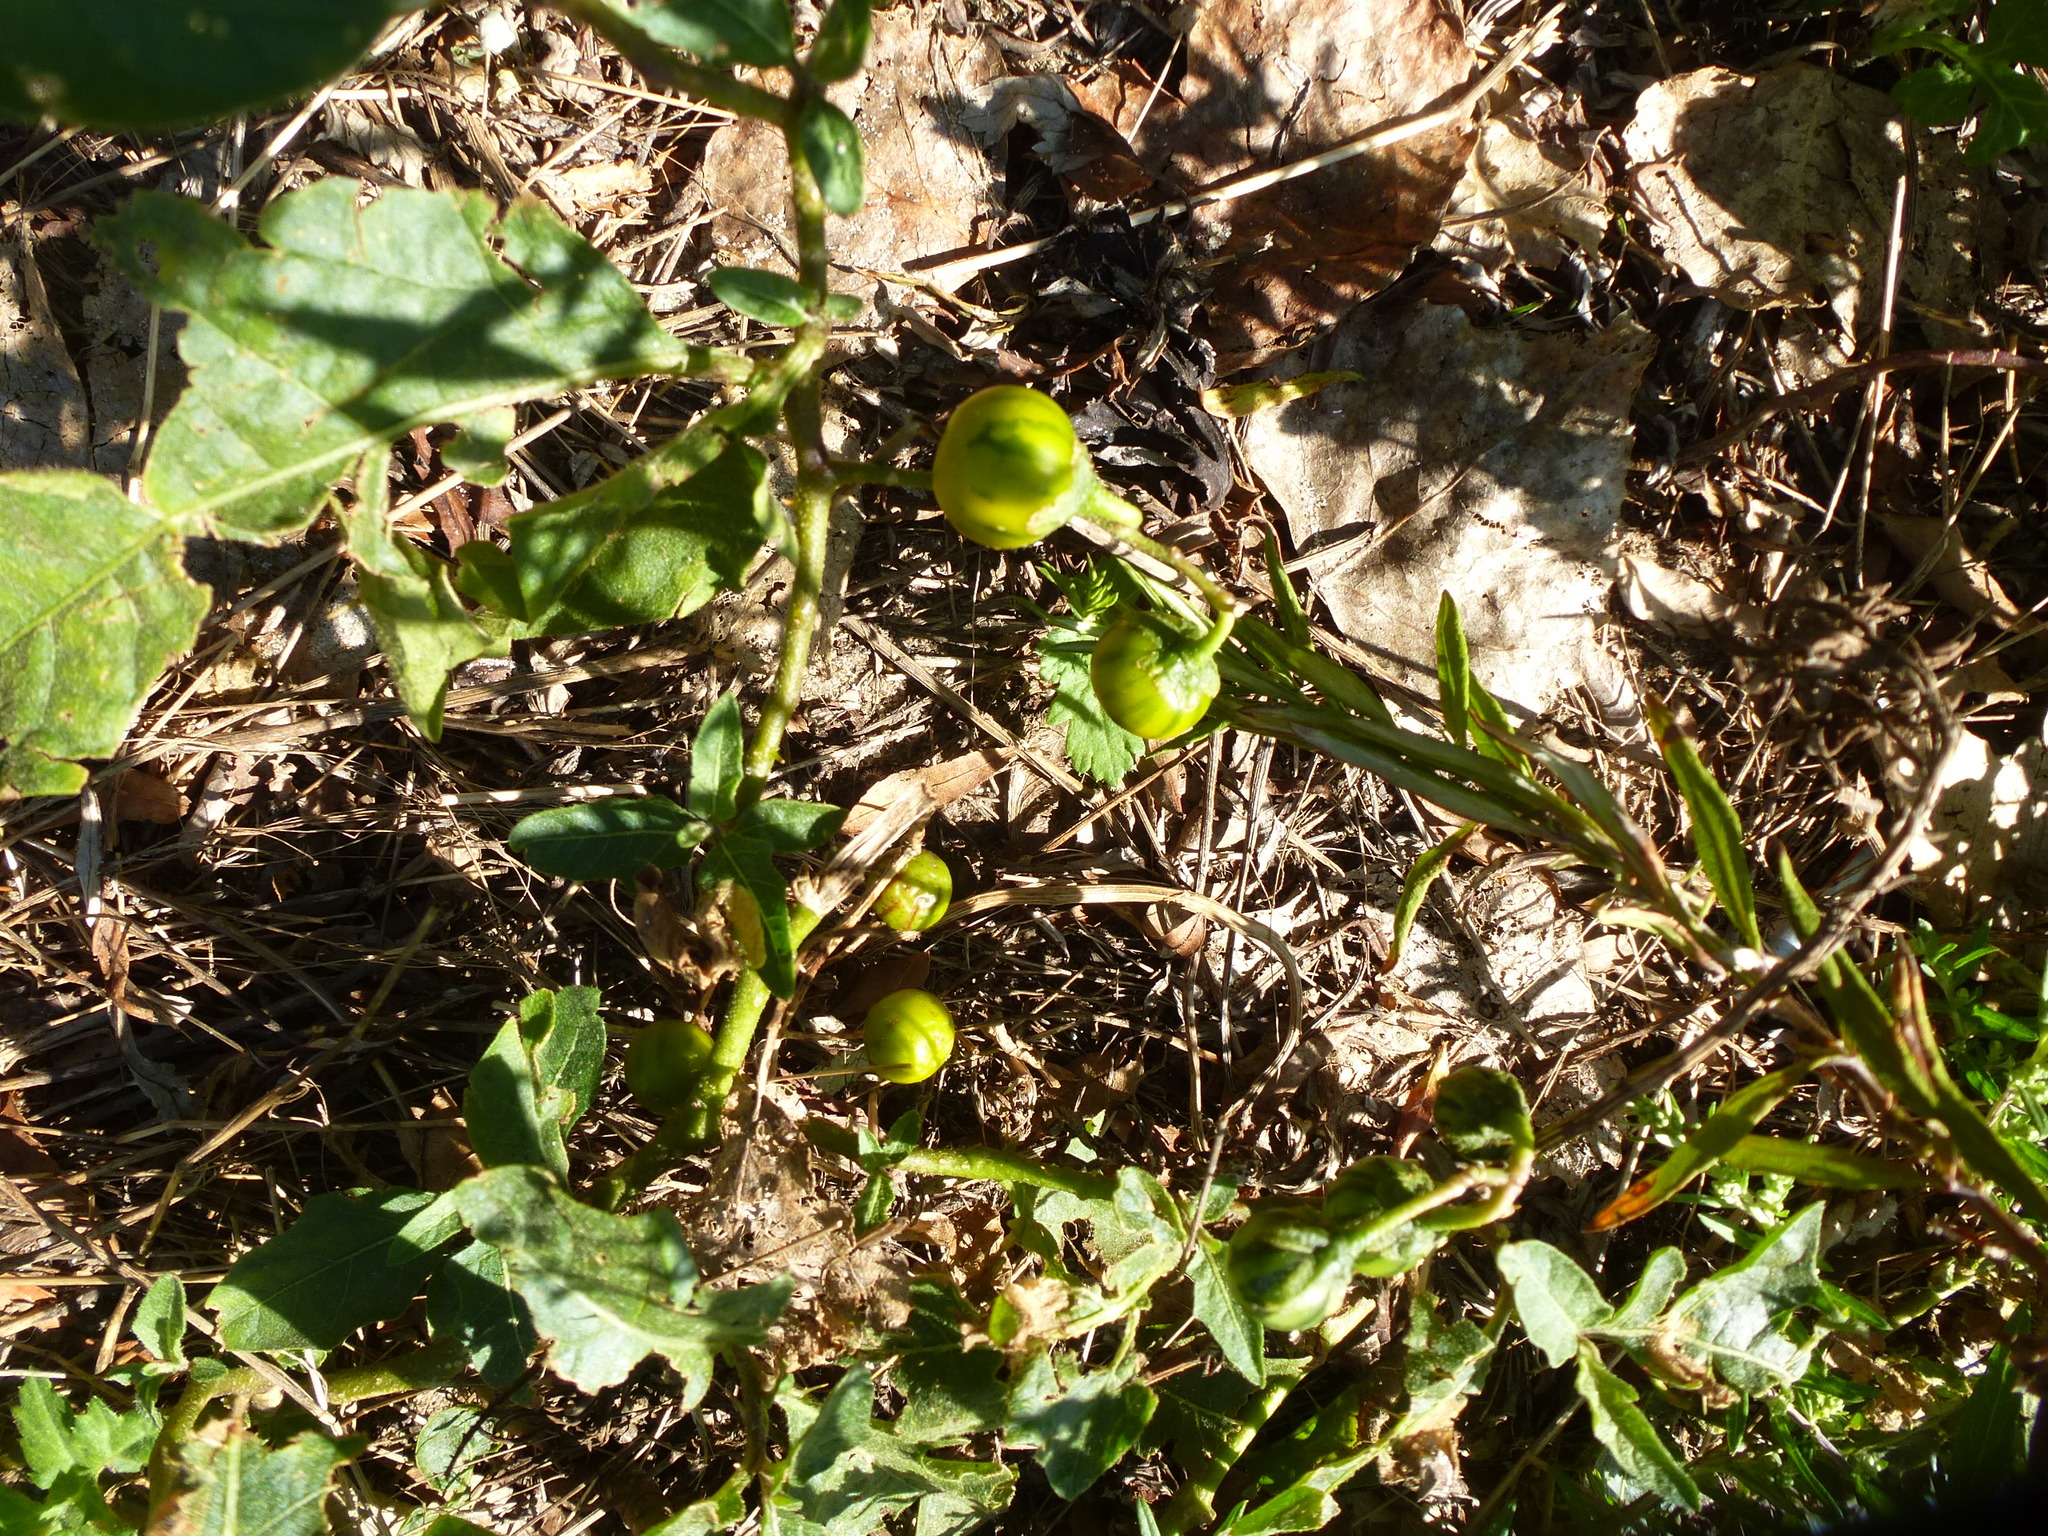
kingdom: Plantae
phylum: Tracheophyta
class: Magnoliopsida
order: Solanales
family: Solanaceae
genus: Solanum
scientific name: Solanum carolinense
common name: Horse-nettle
